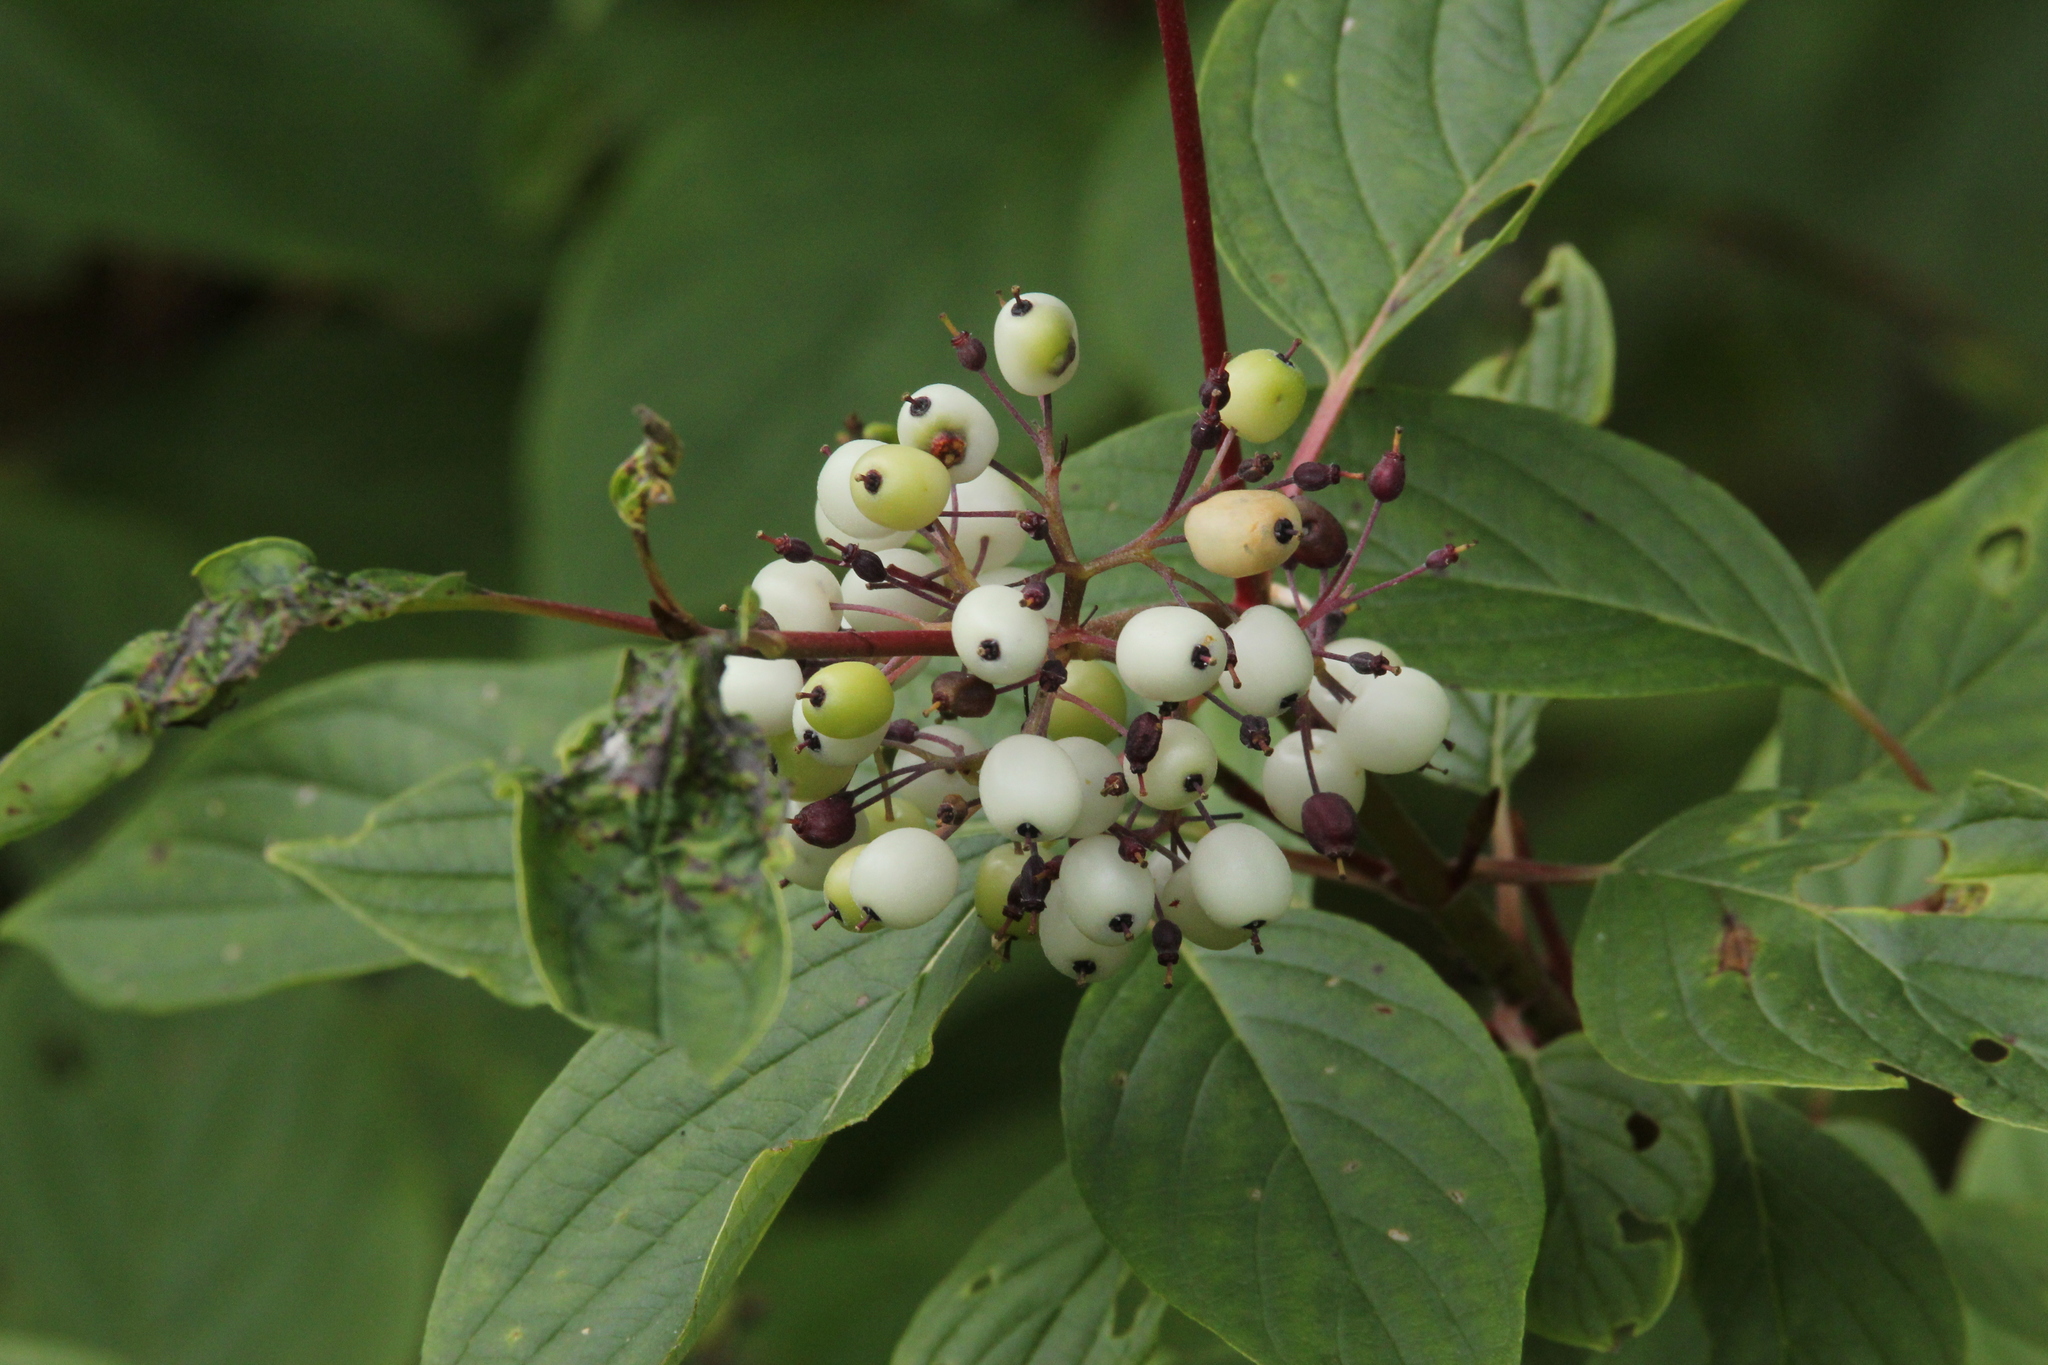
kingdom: Plantae
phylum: Tracheophyta
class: Magnoliopsida
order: Cornales
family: Cornaceae
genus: Cornus
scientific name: Cornus sericea
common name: Red-osier dogwood
